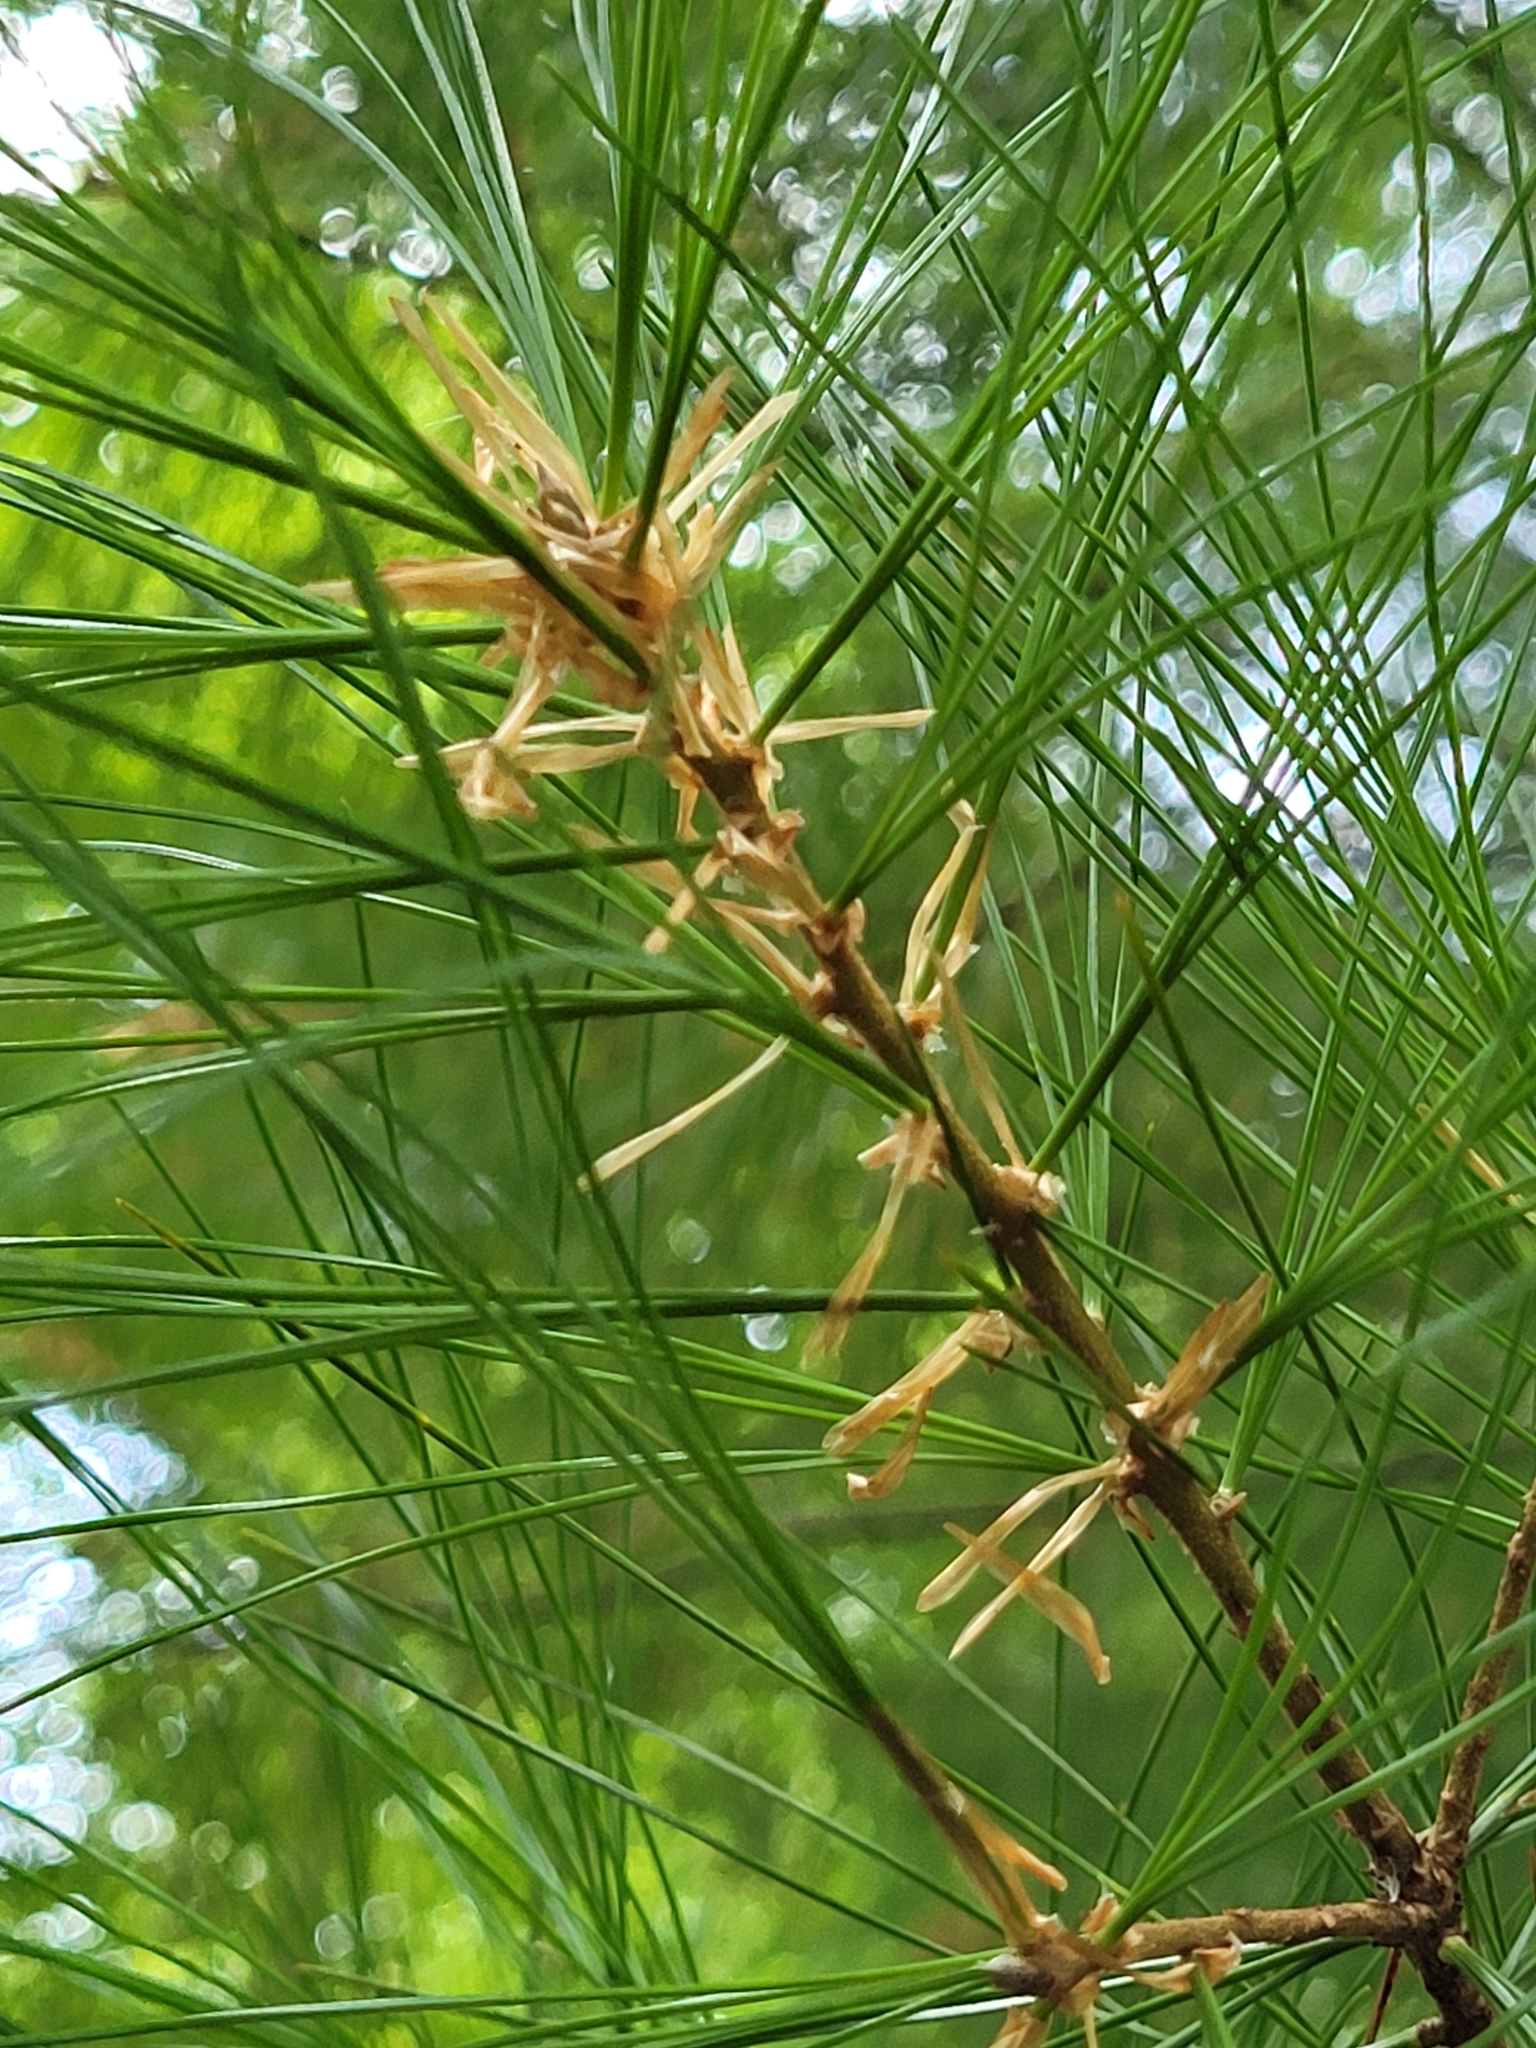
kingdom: Plantae
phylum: Tracheophyta
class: Pinopsida
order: Pinales
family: Pinaceae
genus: Pinus
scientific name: Pinus strobus
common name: Weymouth pine
